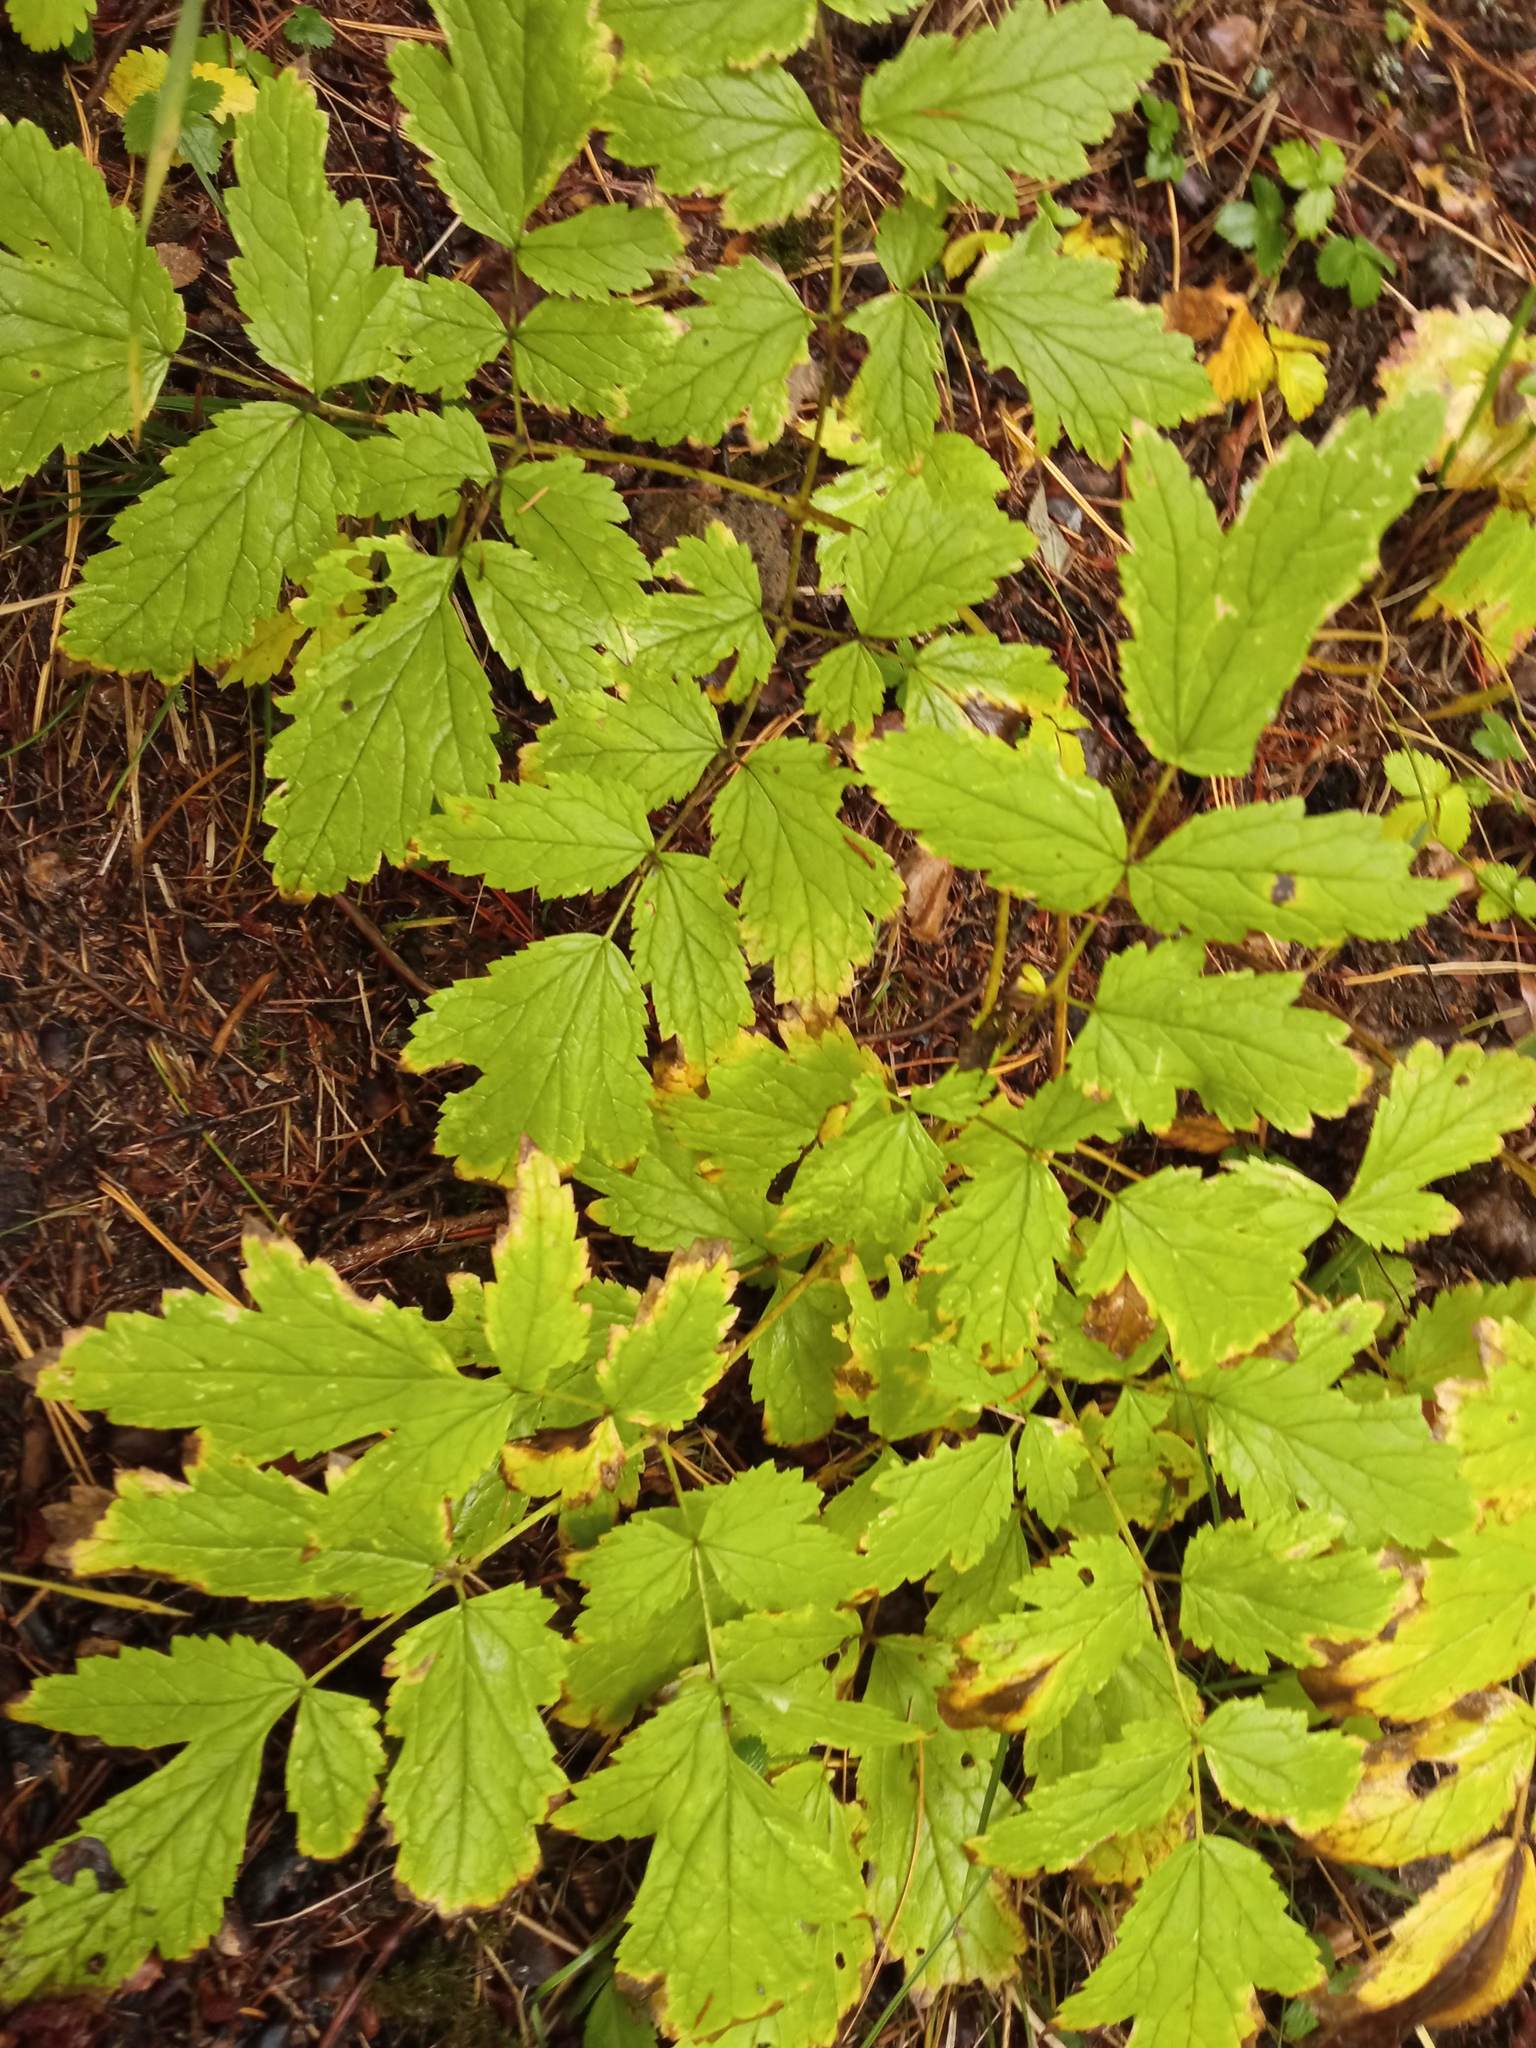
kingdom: Plantae
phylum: Tracheophyta
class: Magnoliopsida
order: Ranunculales
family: Ranunculaceae
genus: Actaea
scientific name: Actaea cimicifuga
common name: Chinese cimicifuga
